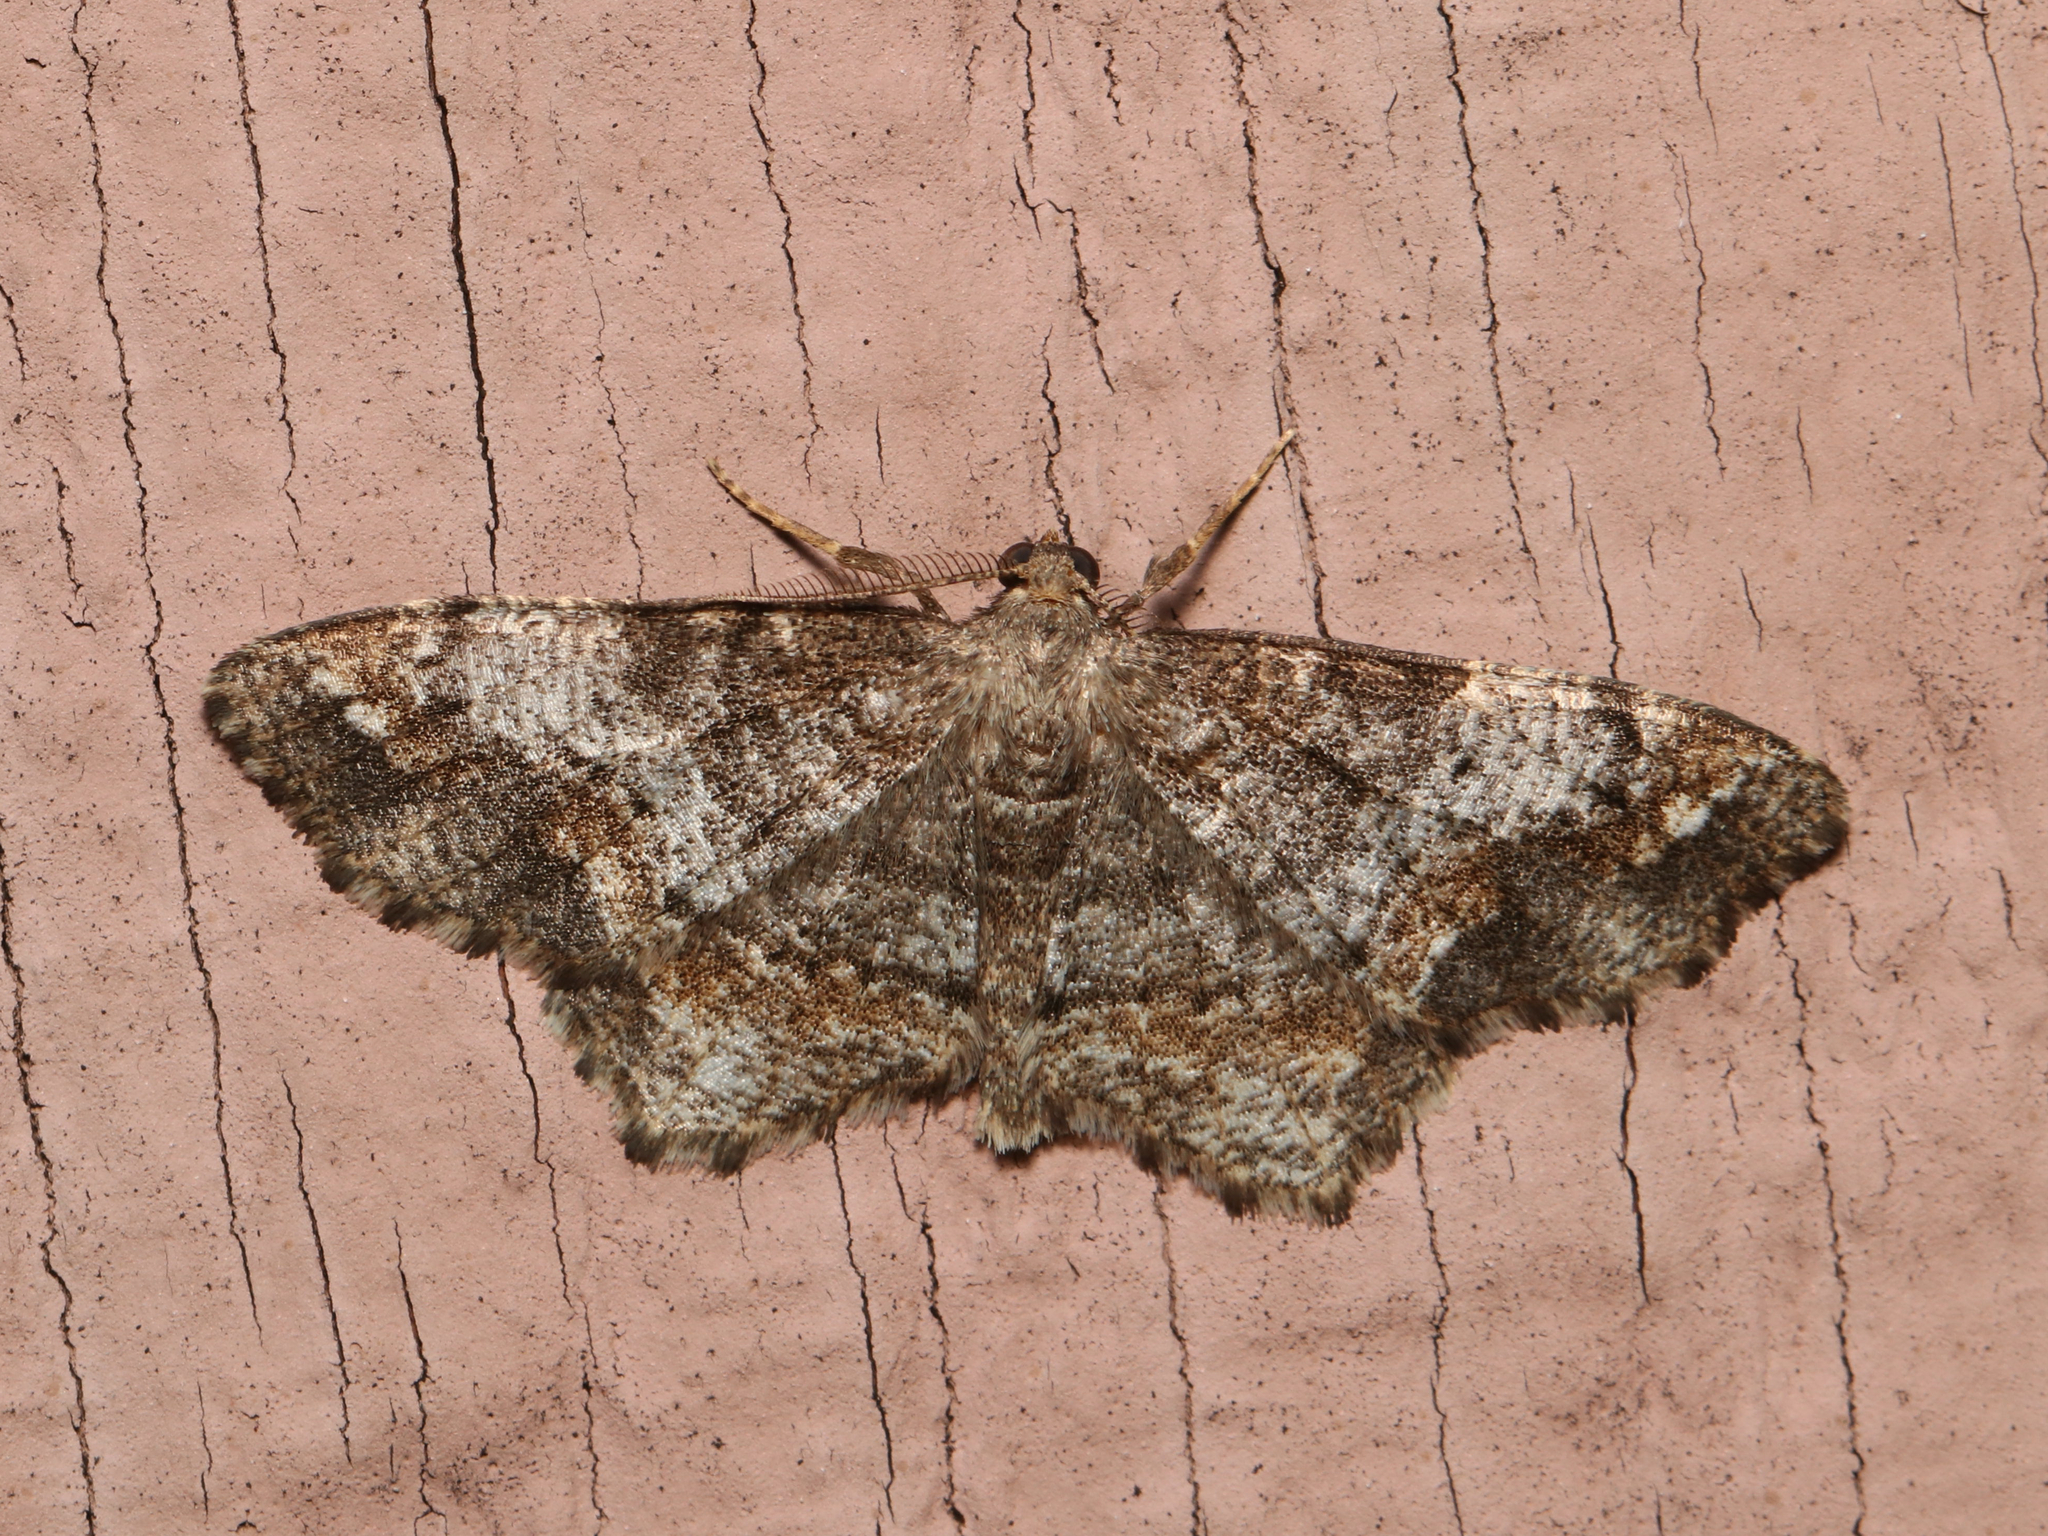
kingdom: Animalia
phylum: Arthropoda
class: Insecta
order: Lepidoptera
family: Geometridae
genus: Hypagyrtis
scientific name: Hypagyrtis unipunctata
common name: One-spotted variant
